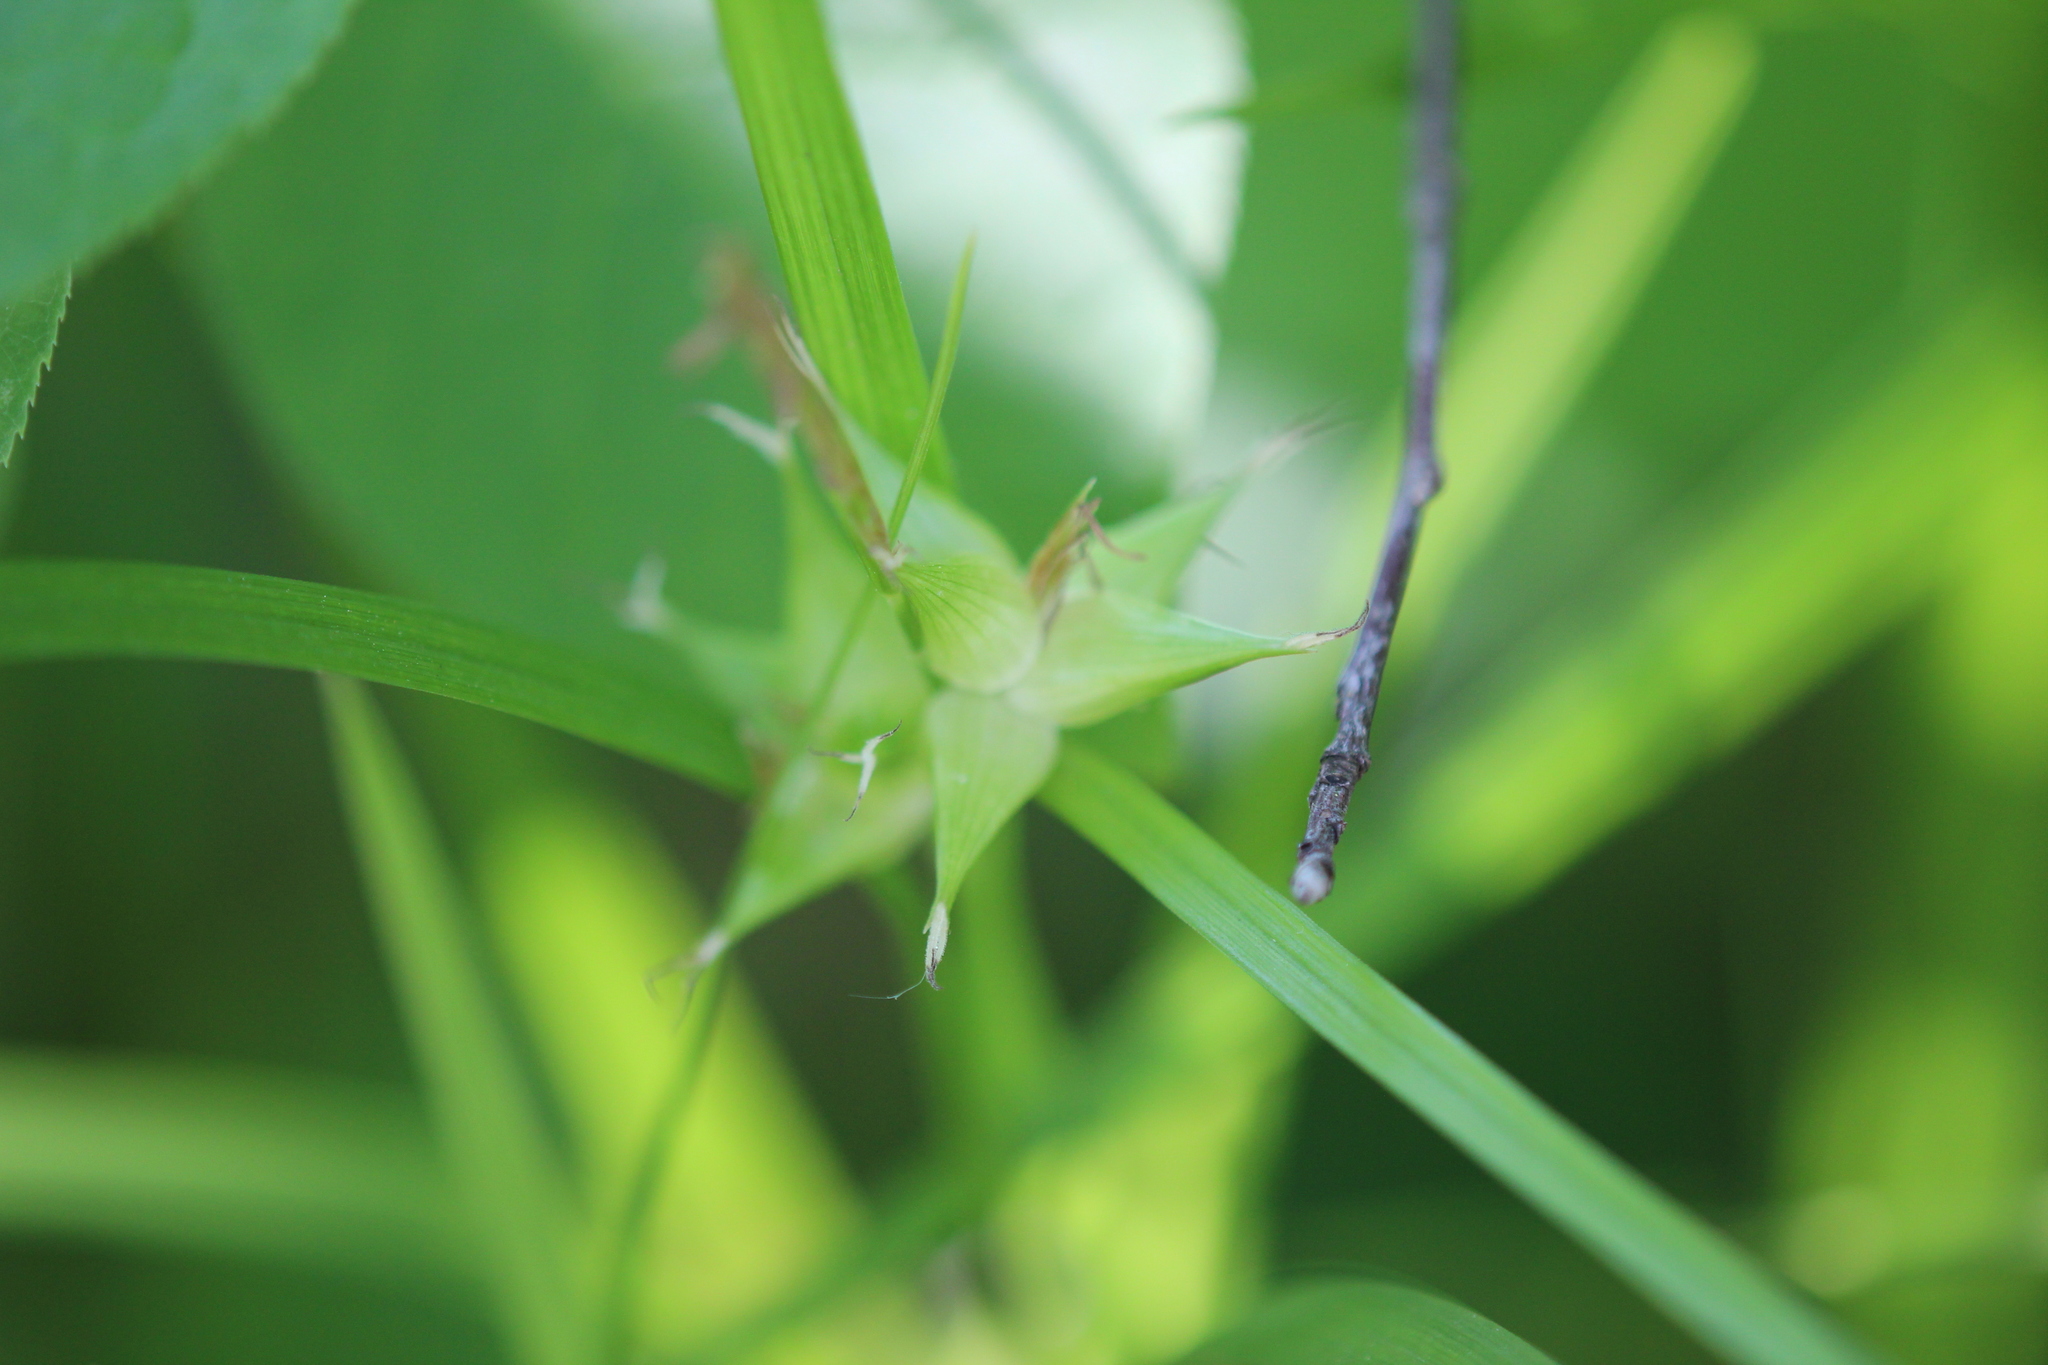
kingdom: Plantae
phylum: Tracheophyta
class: Liliopsida
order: Poales
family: Cyperaceae
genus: Carex
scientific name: Carex intumescens
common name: Greater bladder sedge
